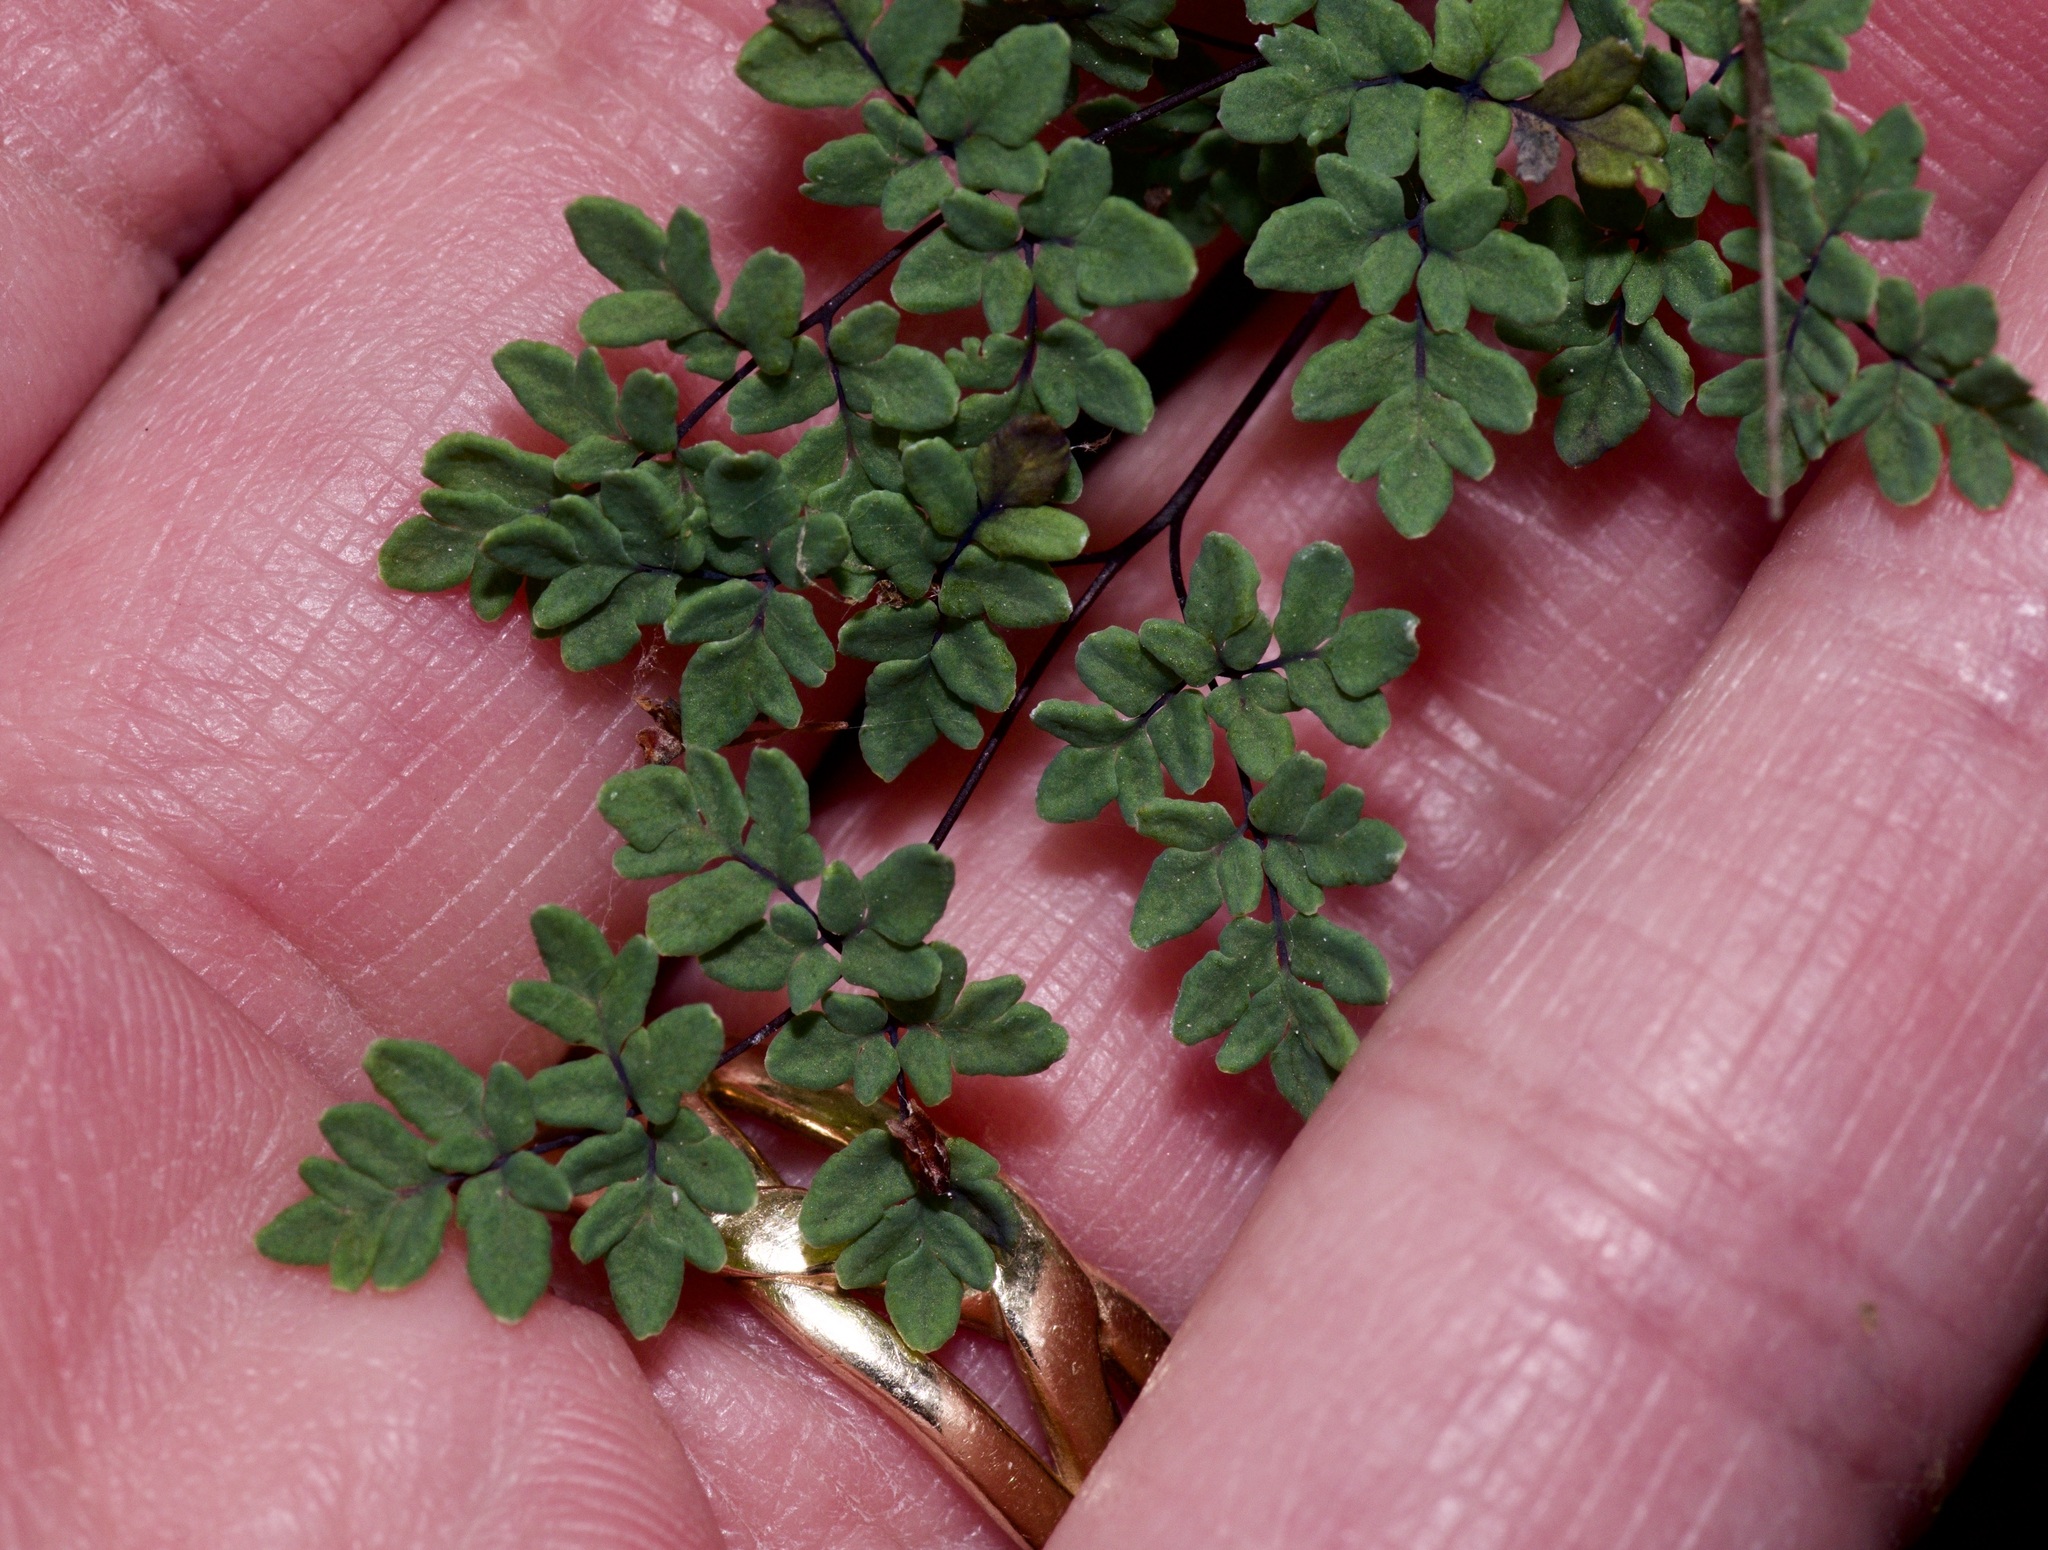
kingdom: Plantae
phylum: Tracheophyta
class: Polypodiopsida
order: Polypodiales
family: Pteridaceae
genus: Argyrochosma
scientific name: Argyrochosma dealbata
